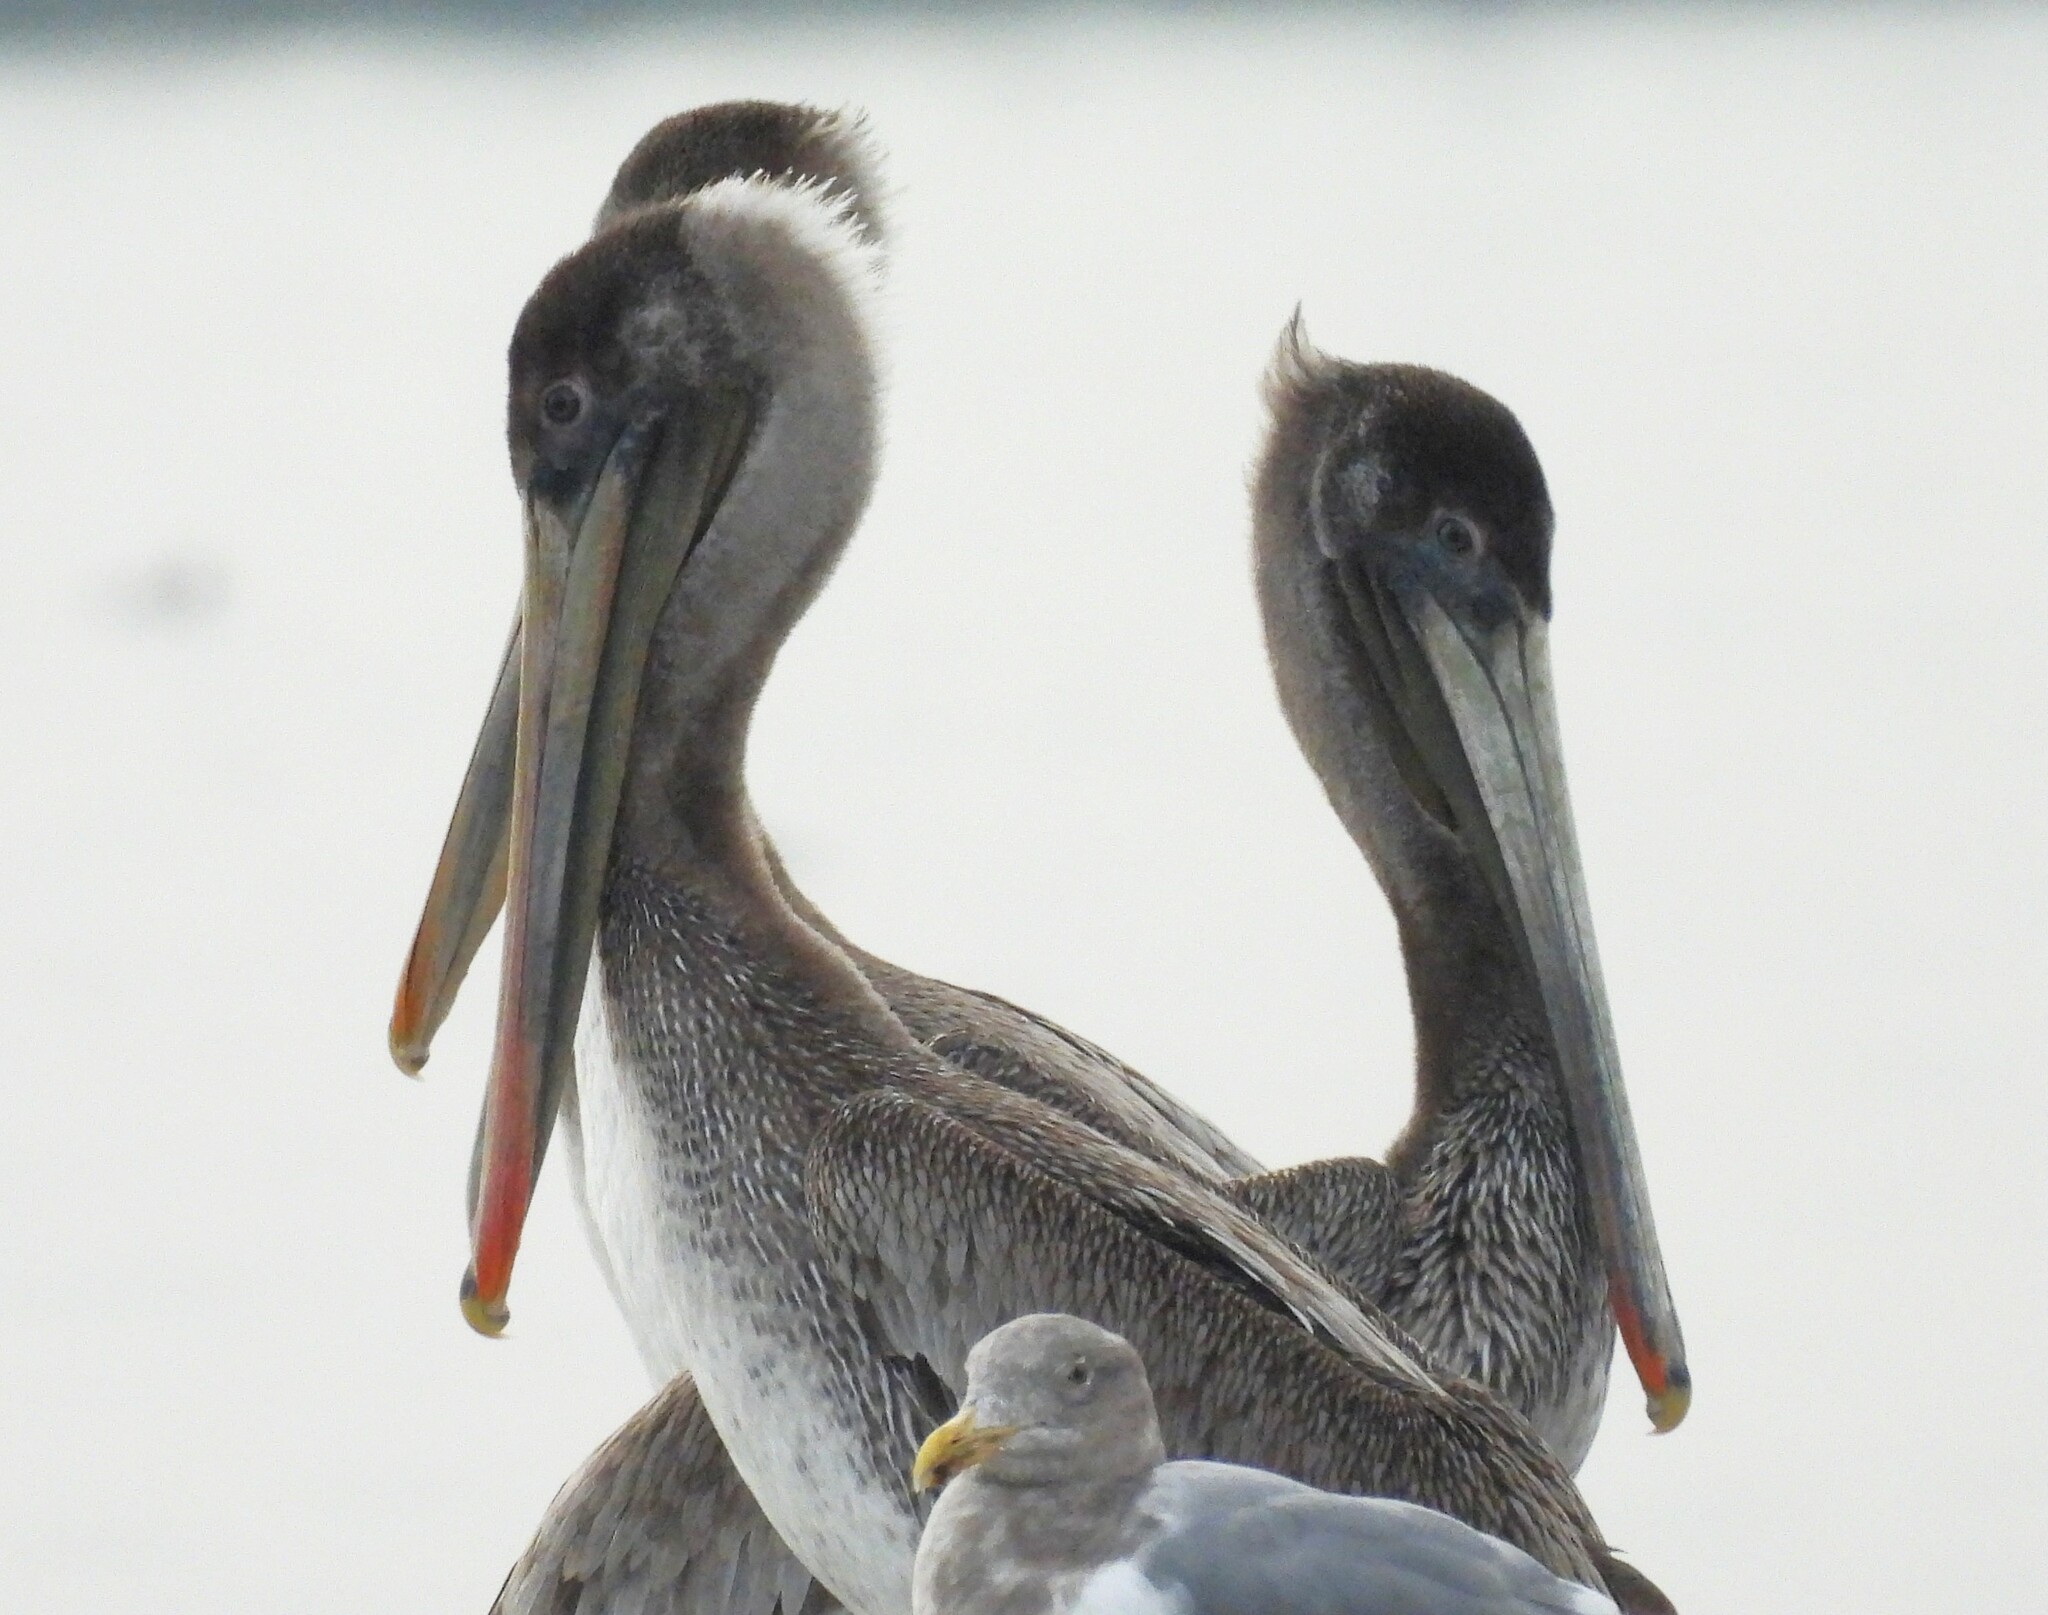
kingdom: Animalia
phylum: Chordata
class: Aves
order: Pelecaniformes
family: Pelecanidae
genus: Pelecanus
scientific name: Pelecanus occidentalis
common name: Brown pelican
